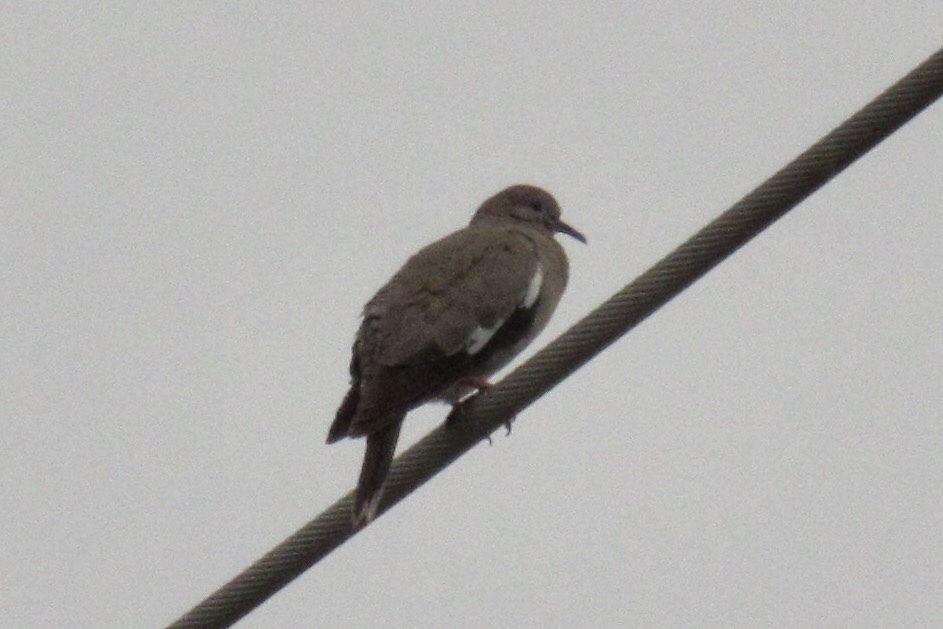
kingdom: Animalia
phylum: Chordata
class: Aves
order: Columbiformes
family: Columbidae
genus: Zenaida
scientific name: Zenaida asiatica
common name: White-winged dove
